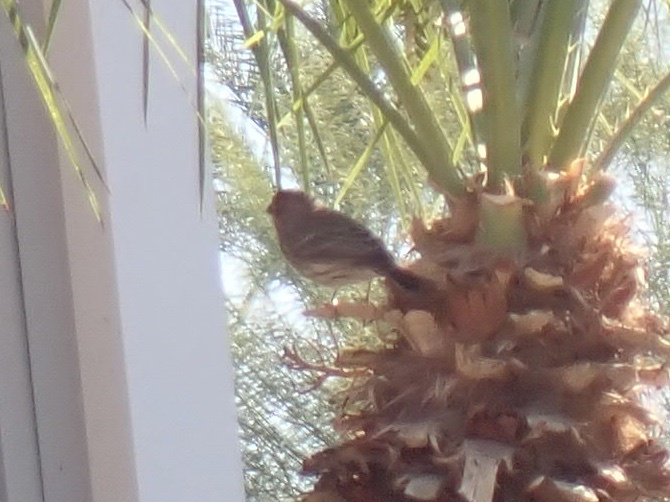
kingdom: Animalia
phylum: Chordata
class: Aves
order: Passeriformes
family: Fringillidae
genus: Haemorhous
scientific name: Haemorhous mexicanus
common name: House finch
